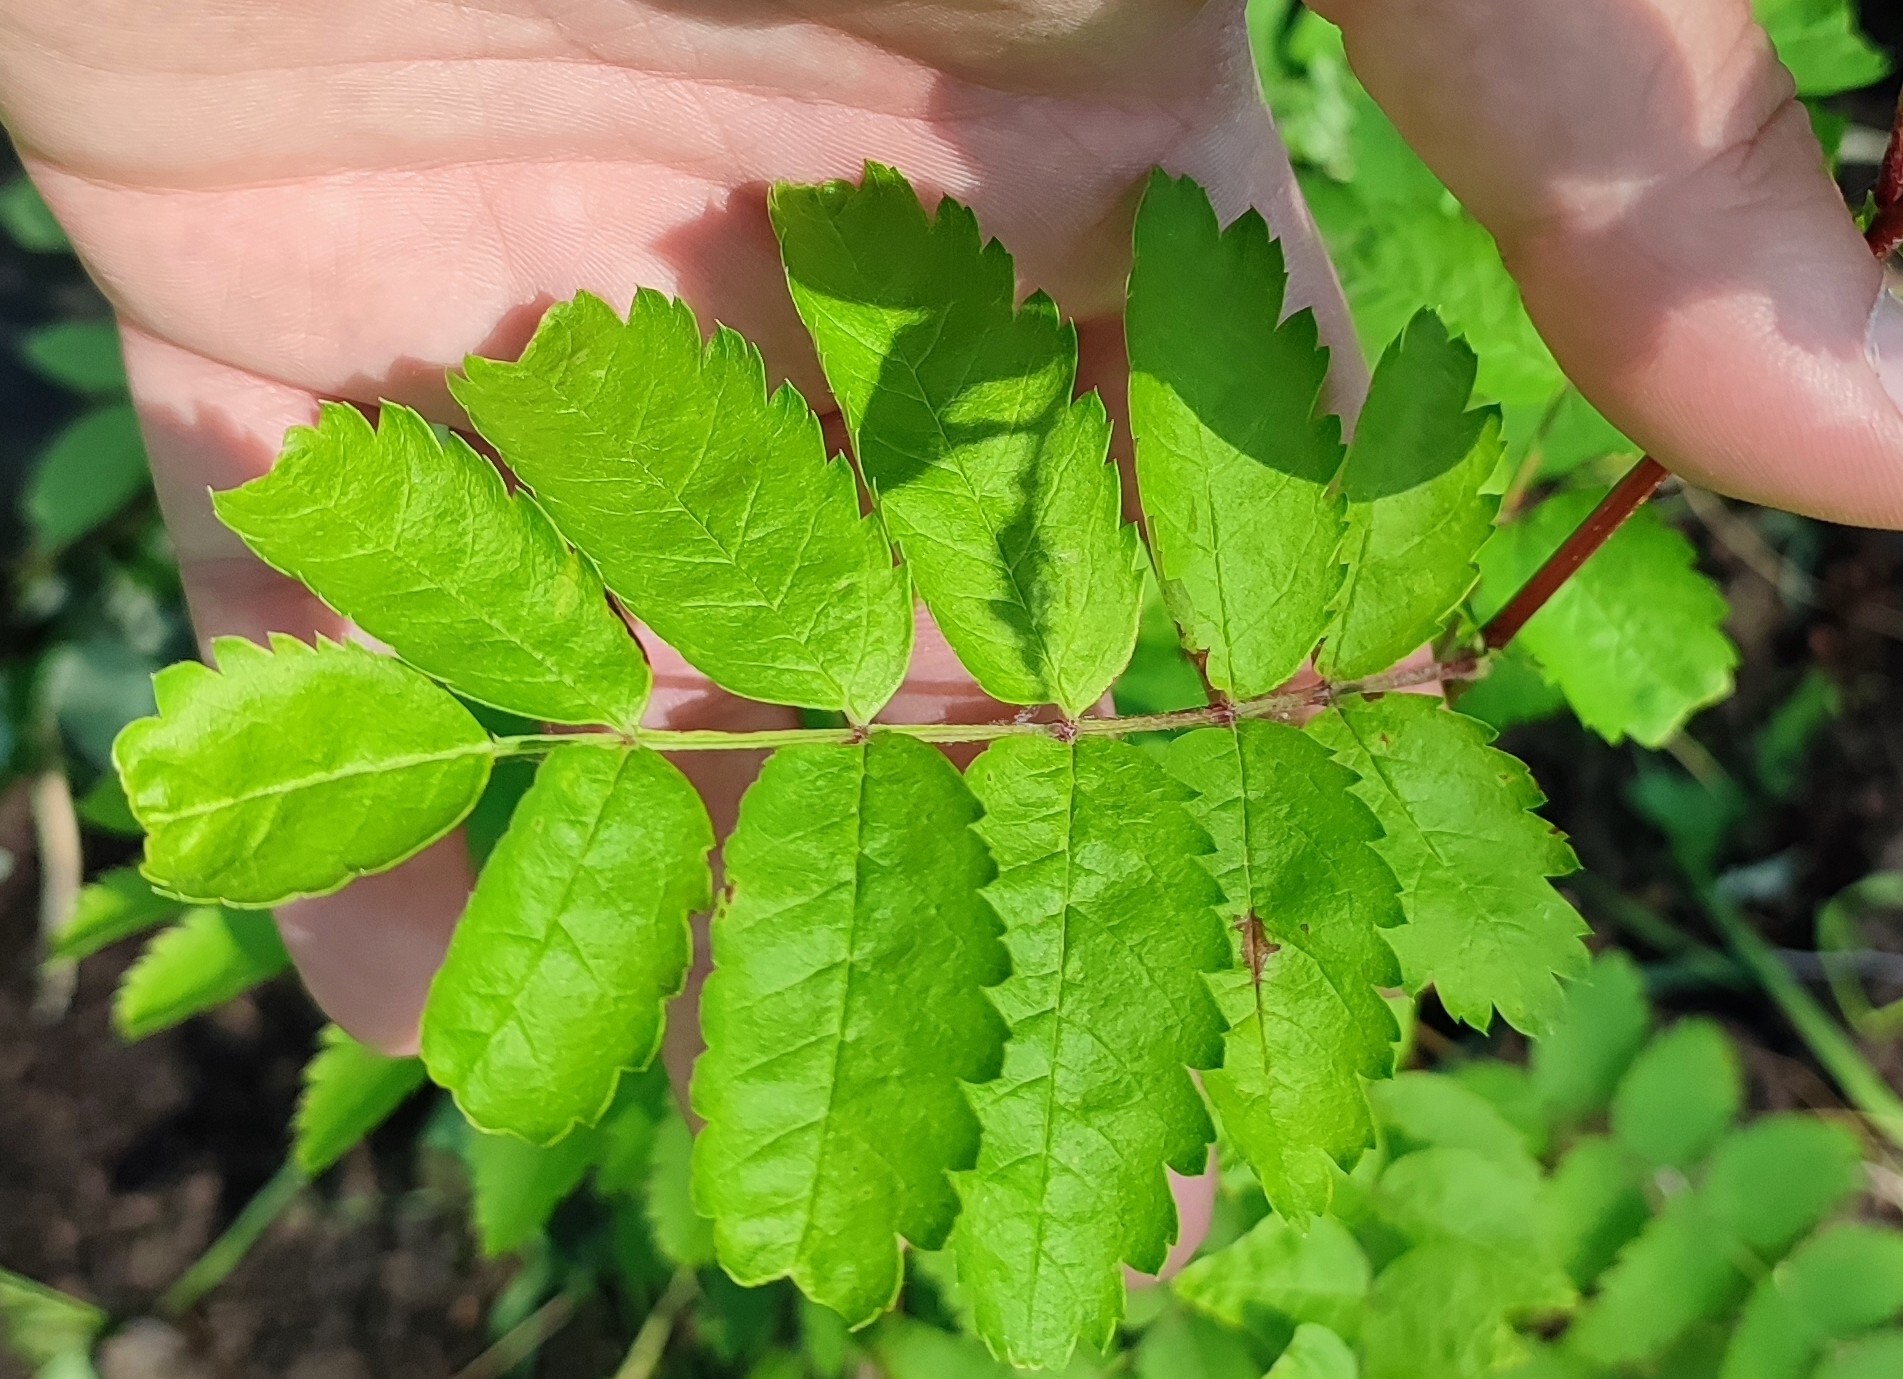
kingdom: Plantae
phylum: Tracheophyta
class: Magnoliopsida
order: Rosales
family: Rosaceae
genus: Sorbus
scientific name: Sorbus aucuparia
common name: Rowan
